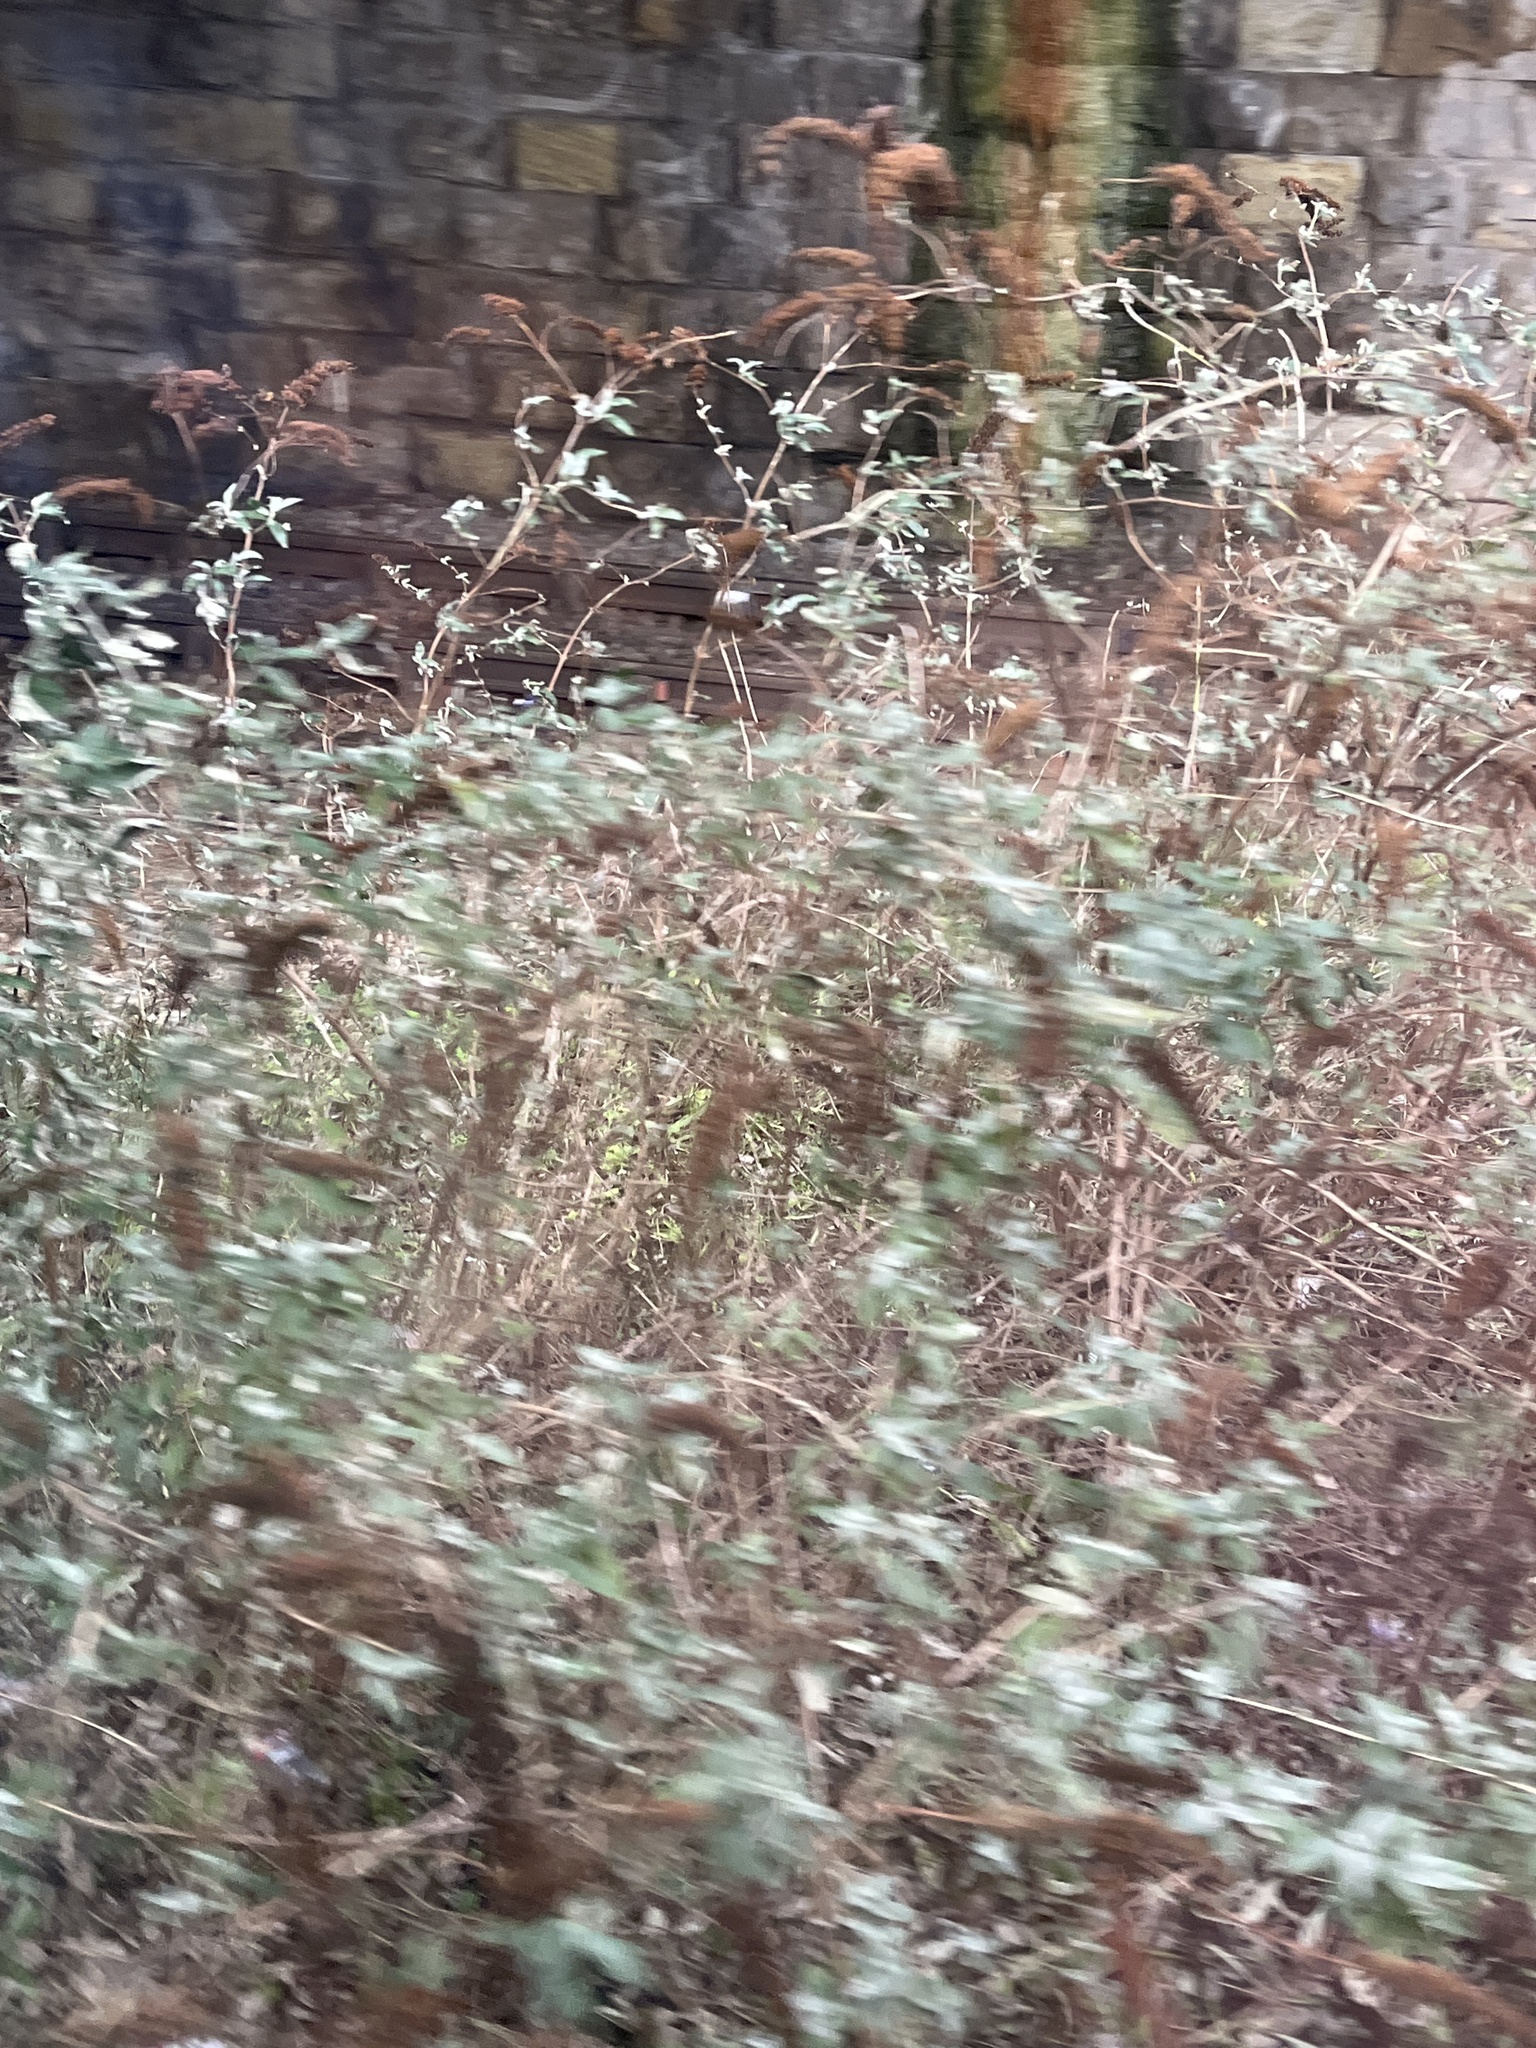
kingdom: Plantae
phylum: Tracheophyta
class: Magnoliopsida
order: Lamiales
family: Scrophulariaceae
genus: Buddleja
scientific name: Buddleja davidii
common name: Butterfly-bush
